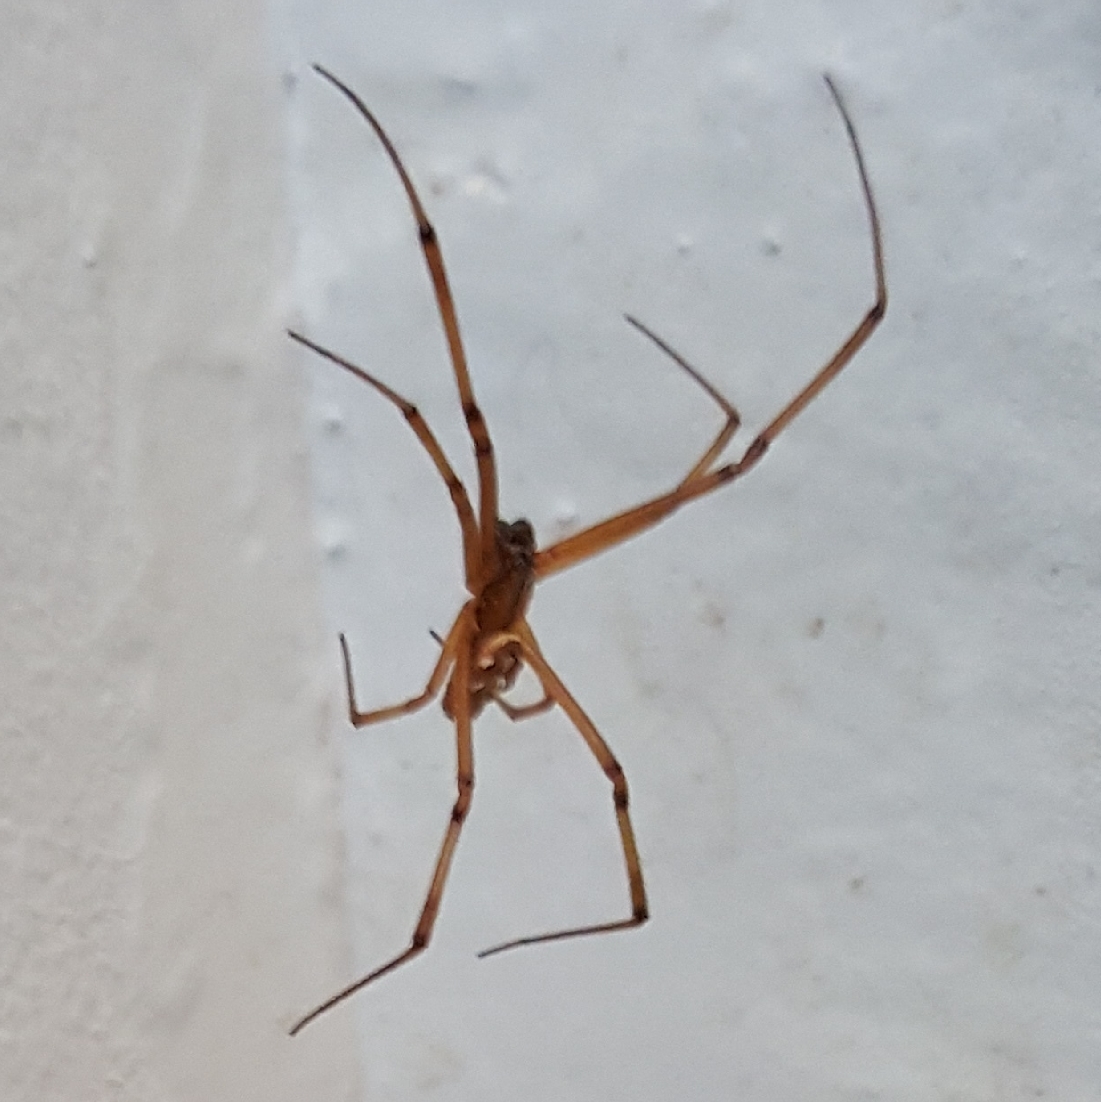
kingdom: Animalia
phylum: Arthropoda
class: Arachnida
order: Araneae
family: Theridiidae
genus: Latrodectus
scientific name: Latrodectus hesperus
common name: Western black widow
